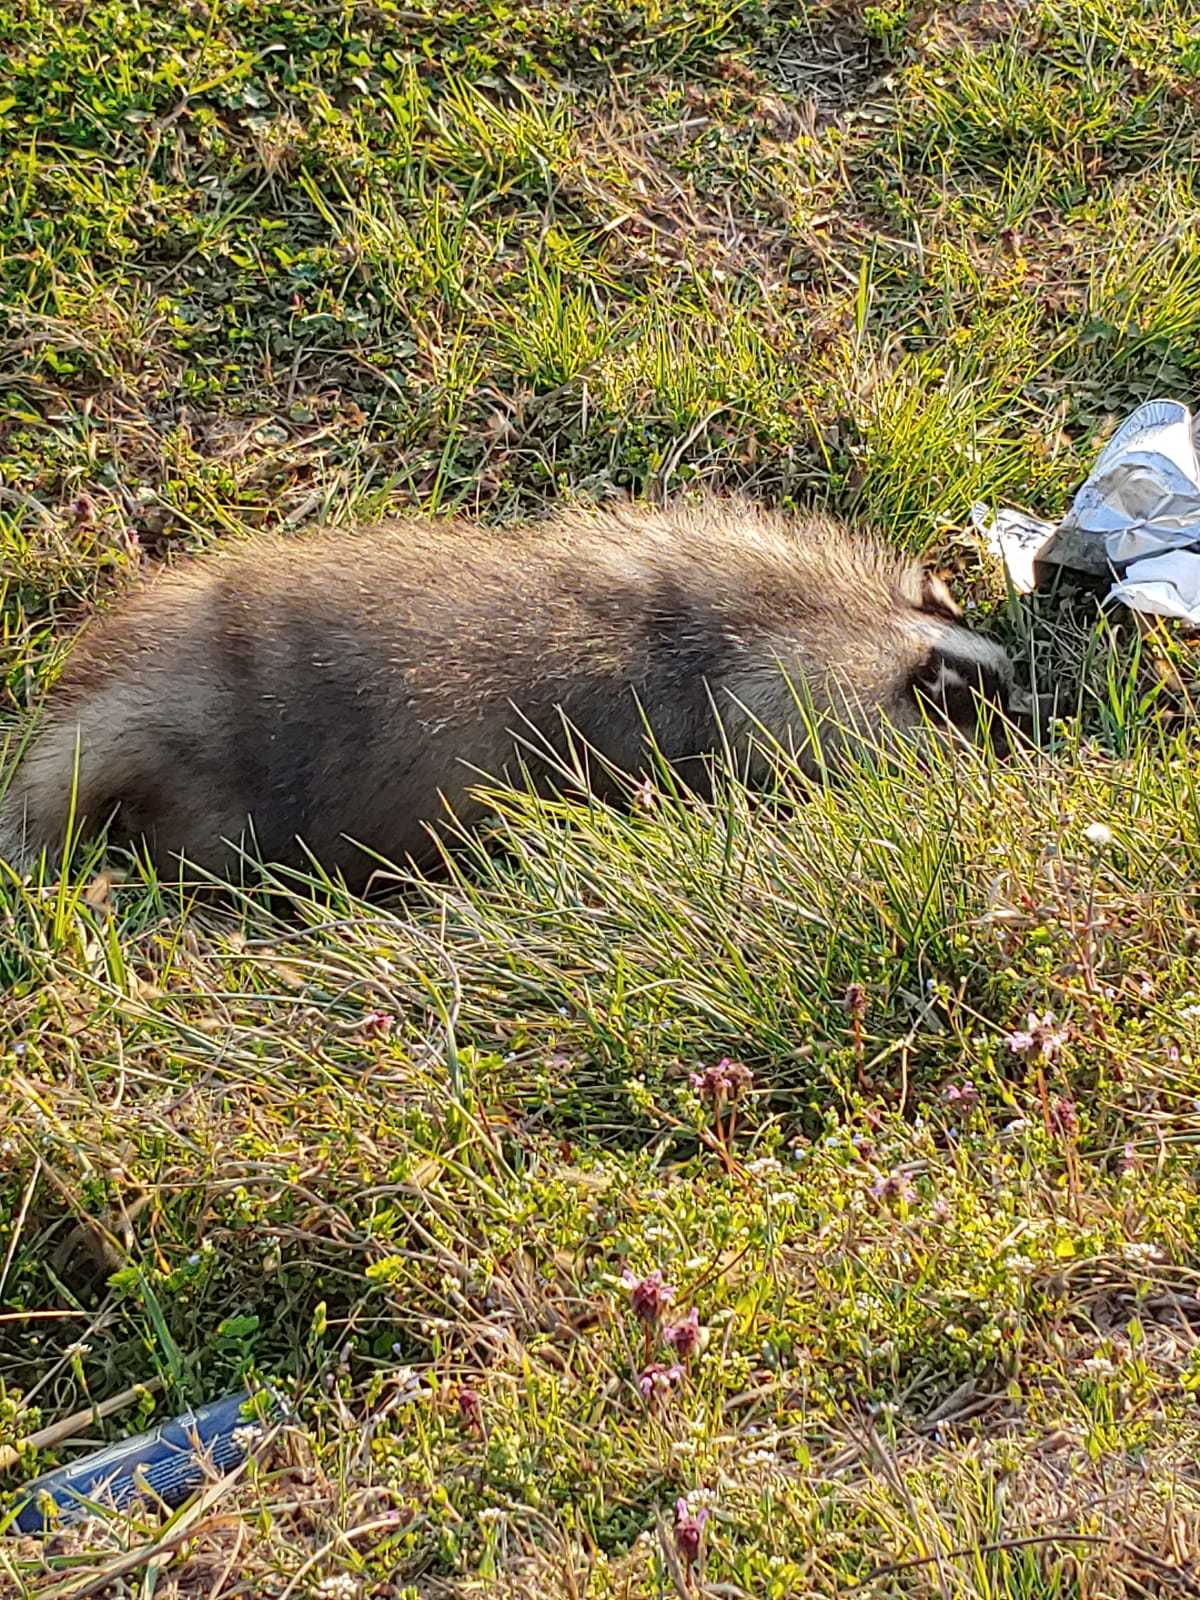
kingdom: Animalia
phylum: Chordata
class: Mammalia
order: Carnivora
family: Mustelidae
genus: Meles
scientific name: Meles meles
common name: Eurasian badger
